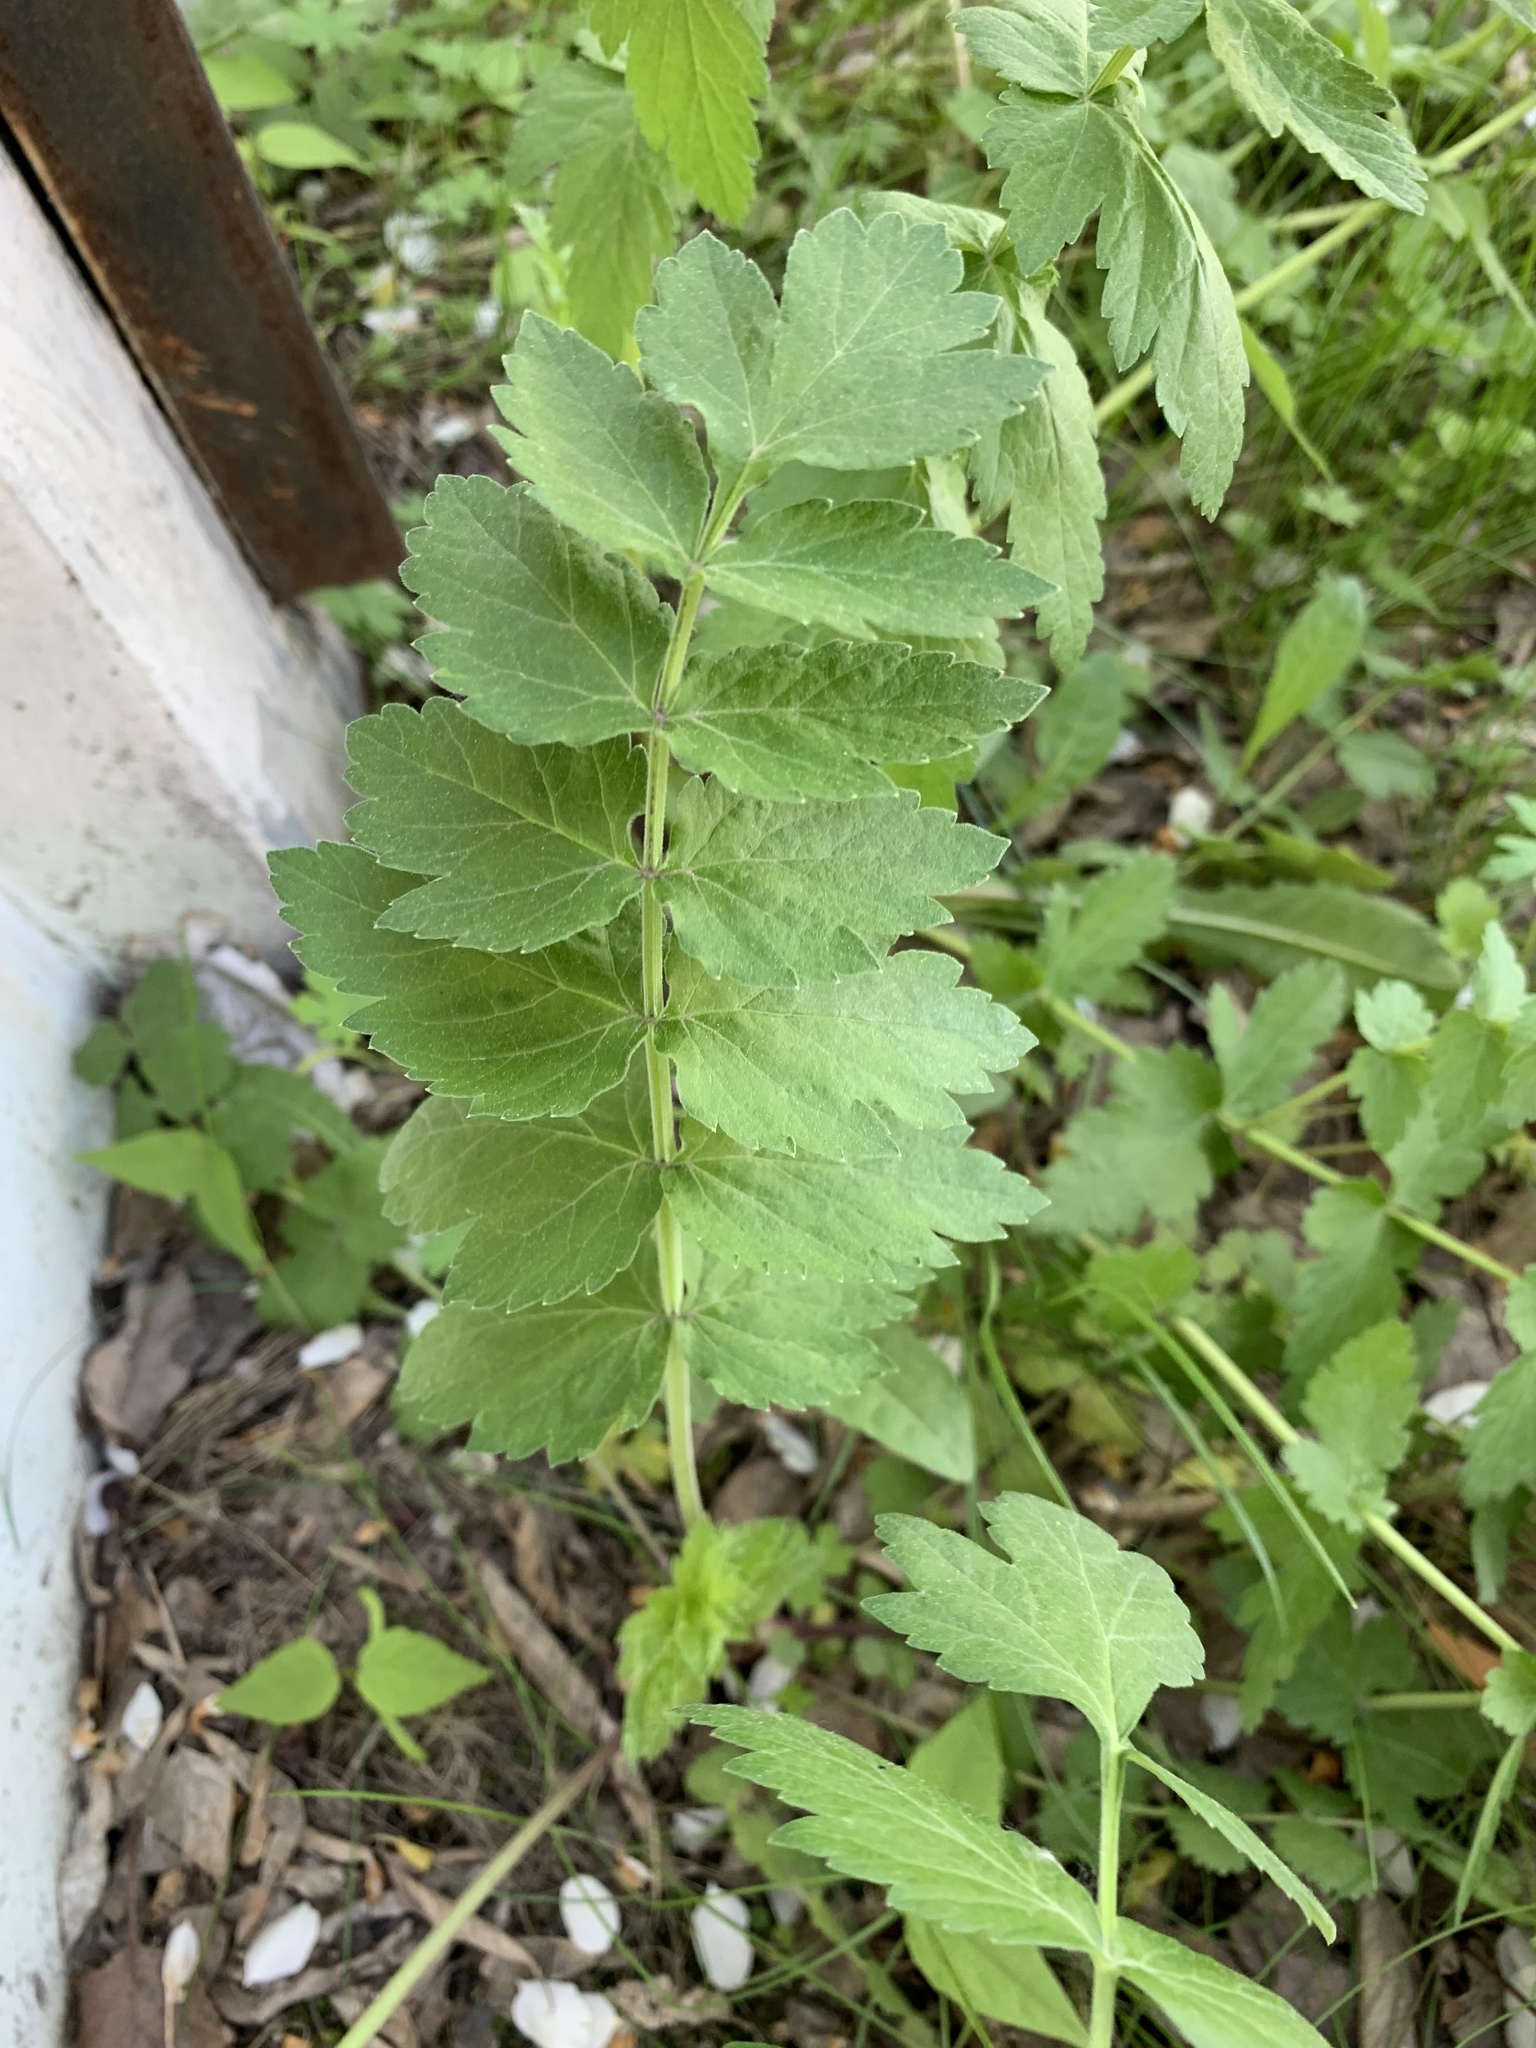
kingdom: Plantae
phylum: Tracheophyta
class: Magnoliopsida
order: Apiales
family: Apiaceae
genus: Pastinaca
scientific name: Pastinaca sativa
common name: Wild parsnip
